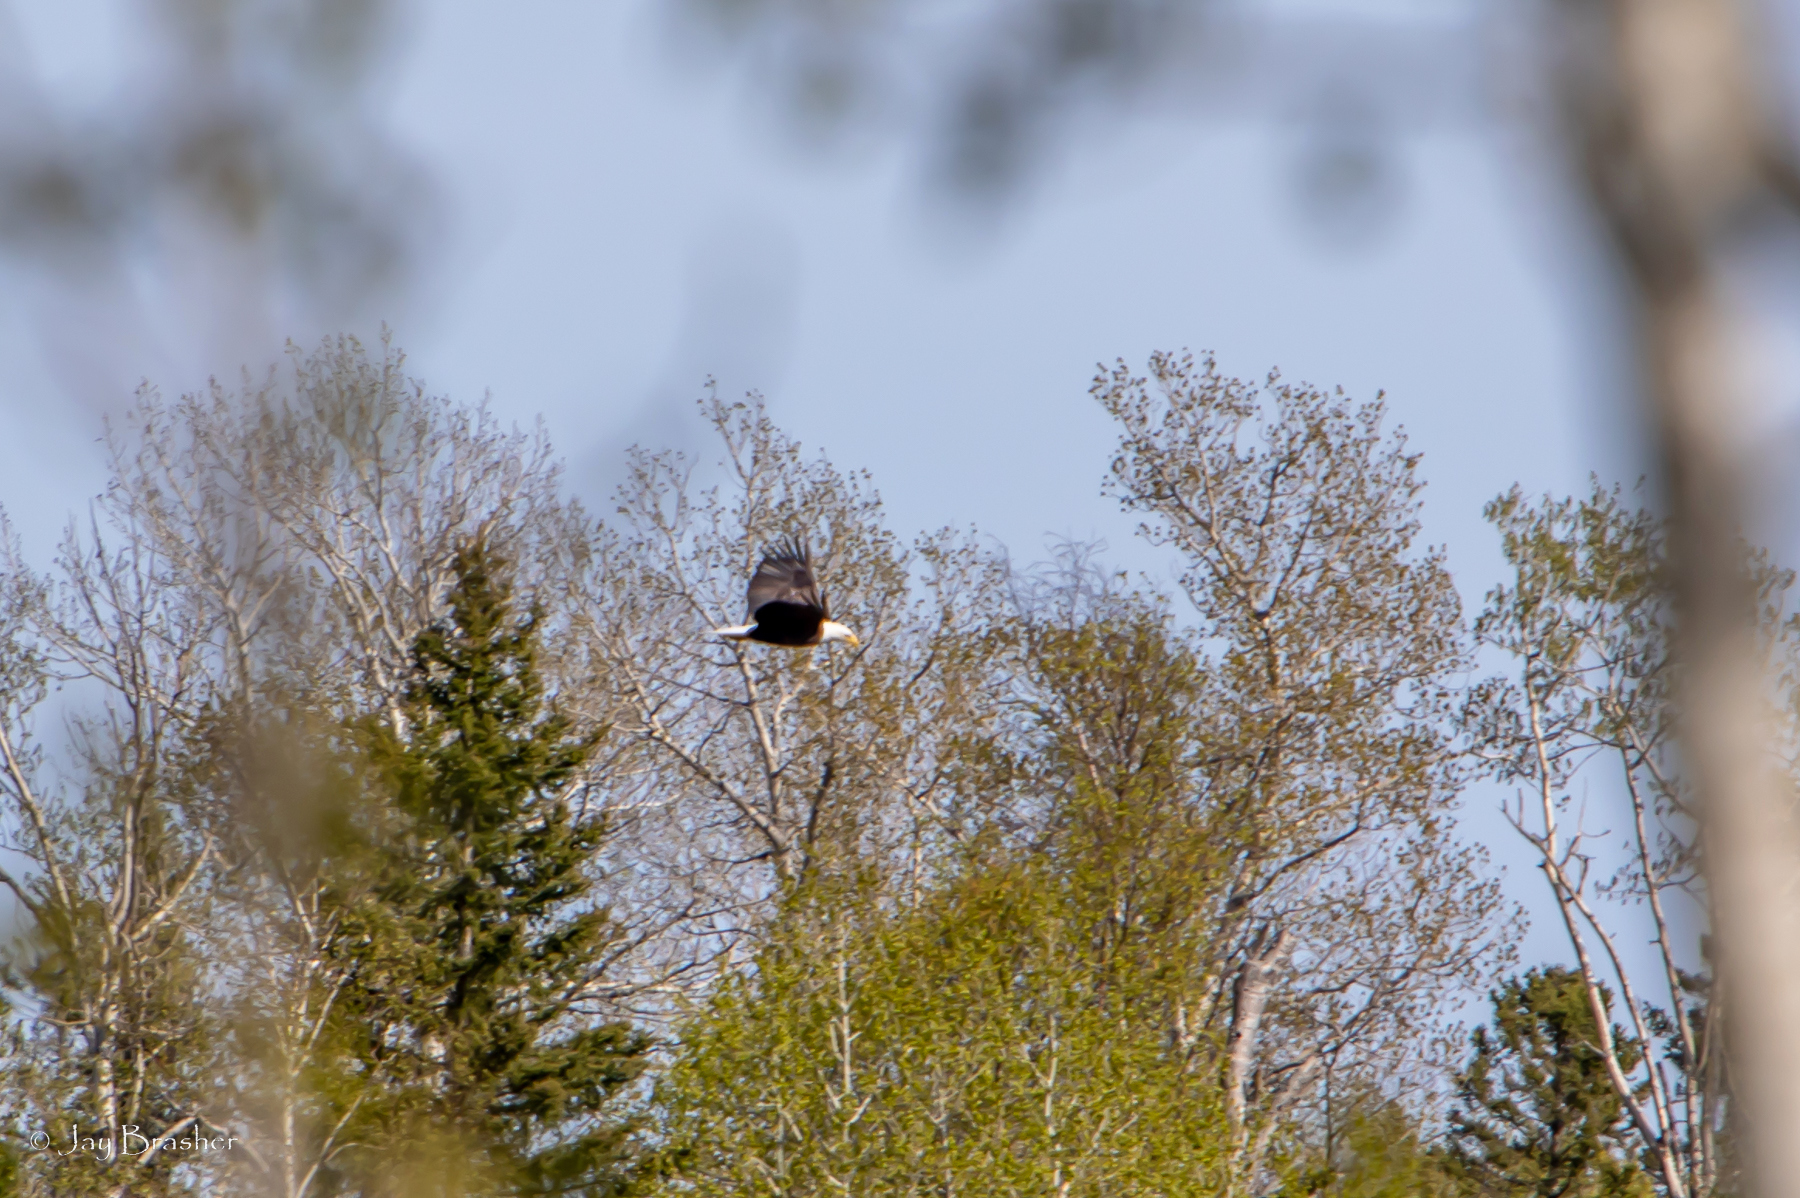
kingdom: Animalia
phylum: Chordata
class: Aves
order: Accipitriformes
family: Accipitridae
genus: Haliaeetus
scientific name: Haliaeetus leucocephalus
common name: Bald eagle
